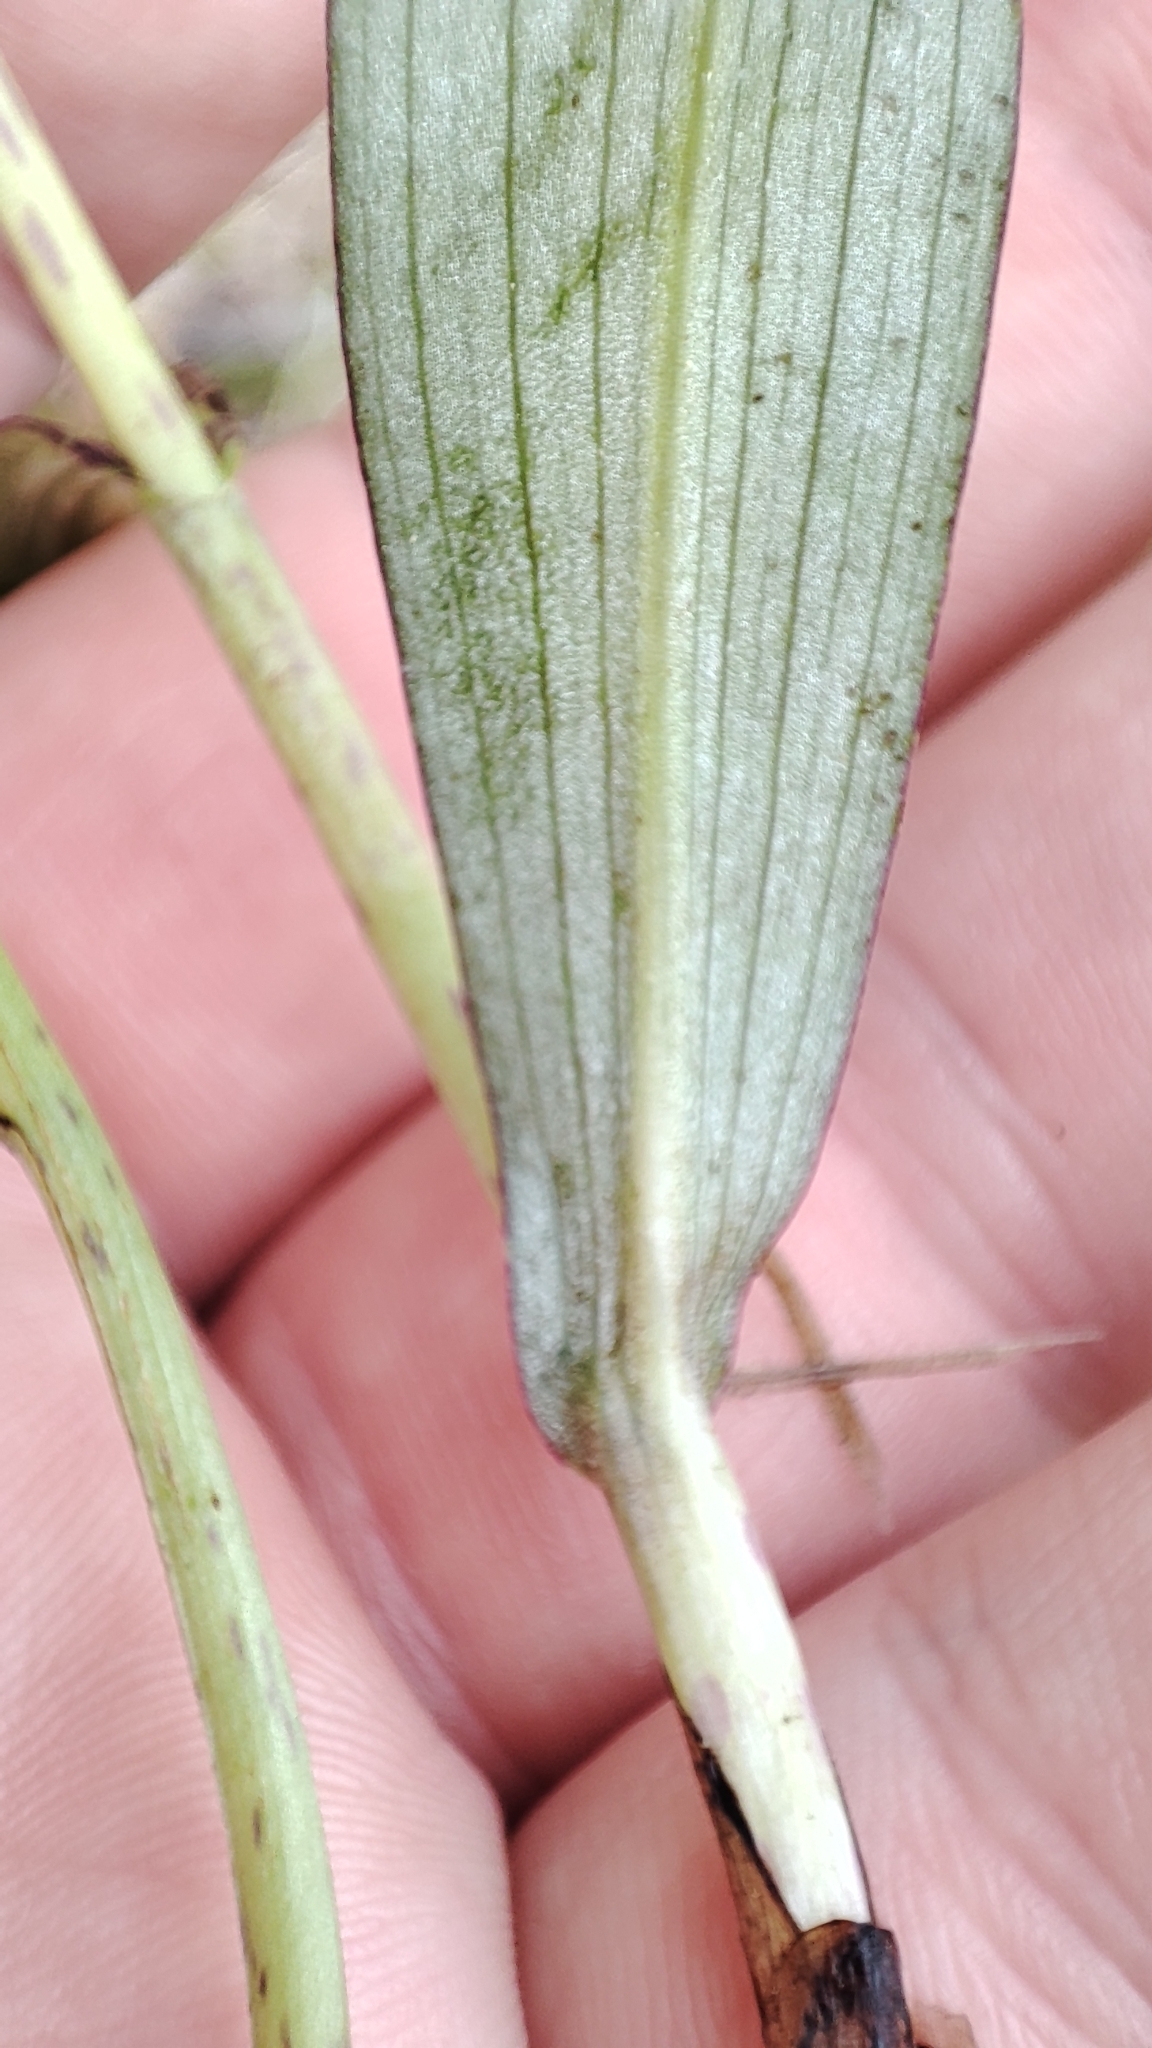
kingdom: Plantae
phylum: Tracheophyta
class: Liliopsida
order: Asparagales
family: Orchidaceae
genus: Dactylorhiza
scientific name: Dactylorhiza maculata
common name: Heath spotted-orchid
